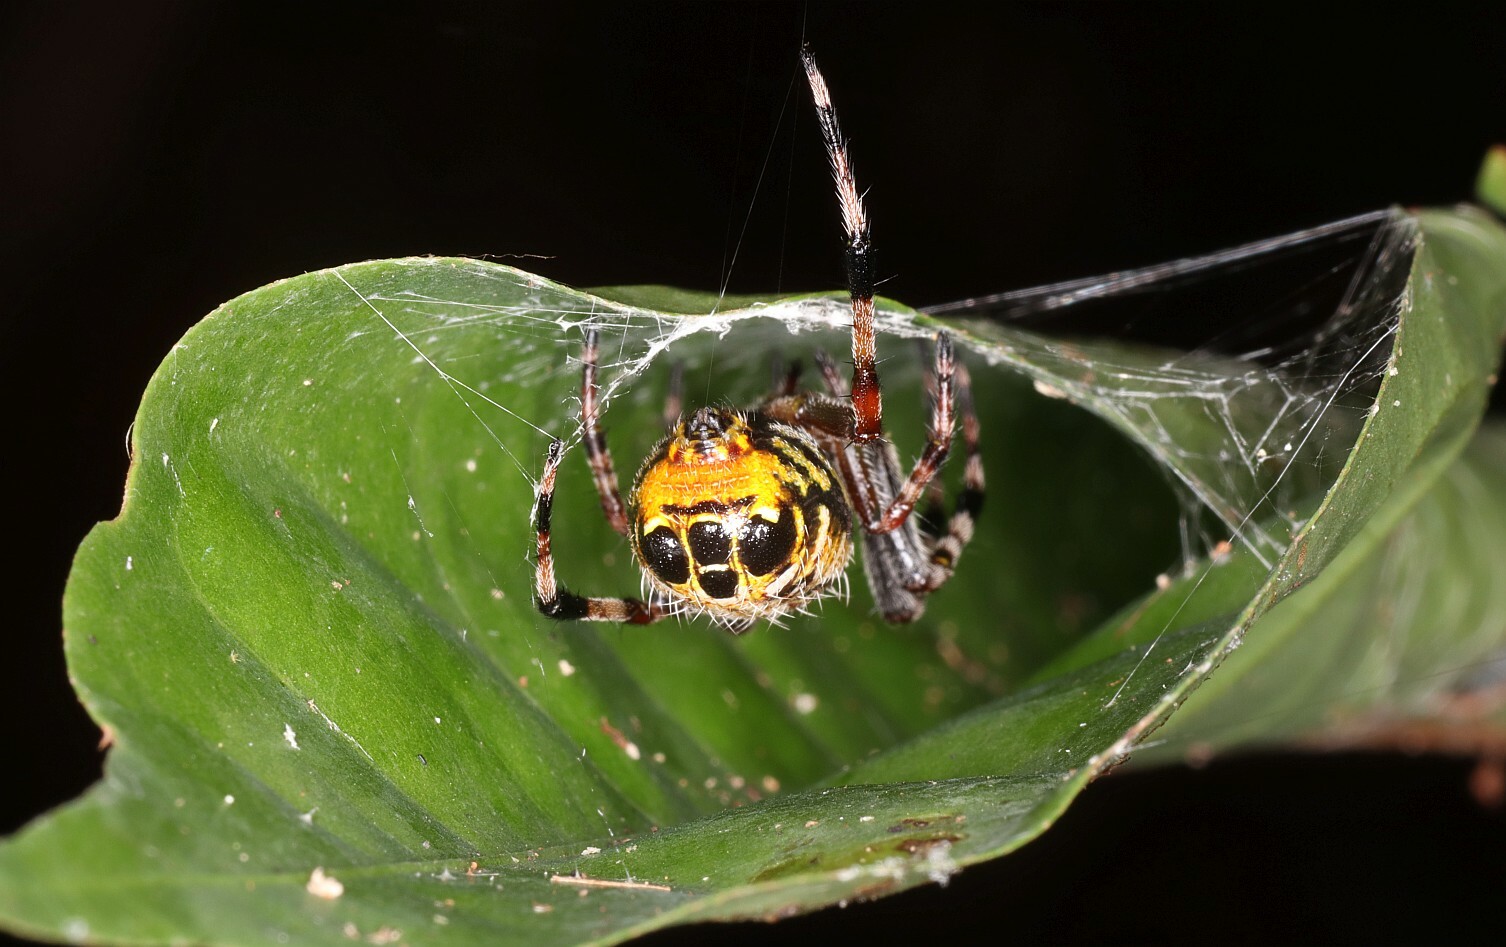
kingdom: Animalia
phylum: Arthropoda
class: Arachnida
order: Araneae
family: Araneidae
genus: Alpaida
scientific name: Alpaida truncata
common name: Orb weavers
